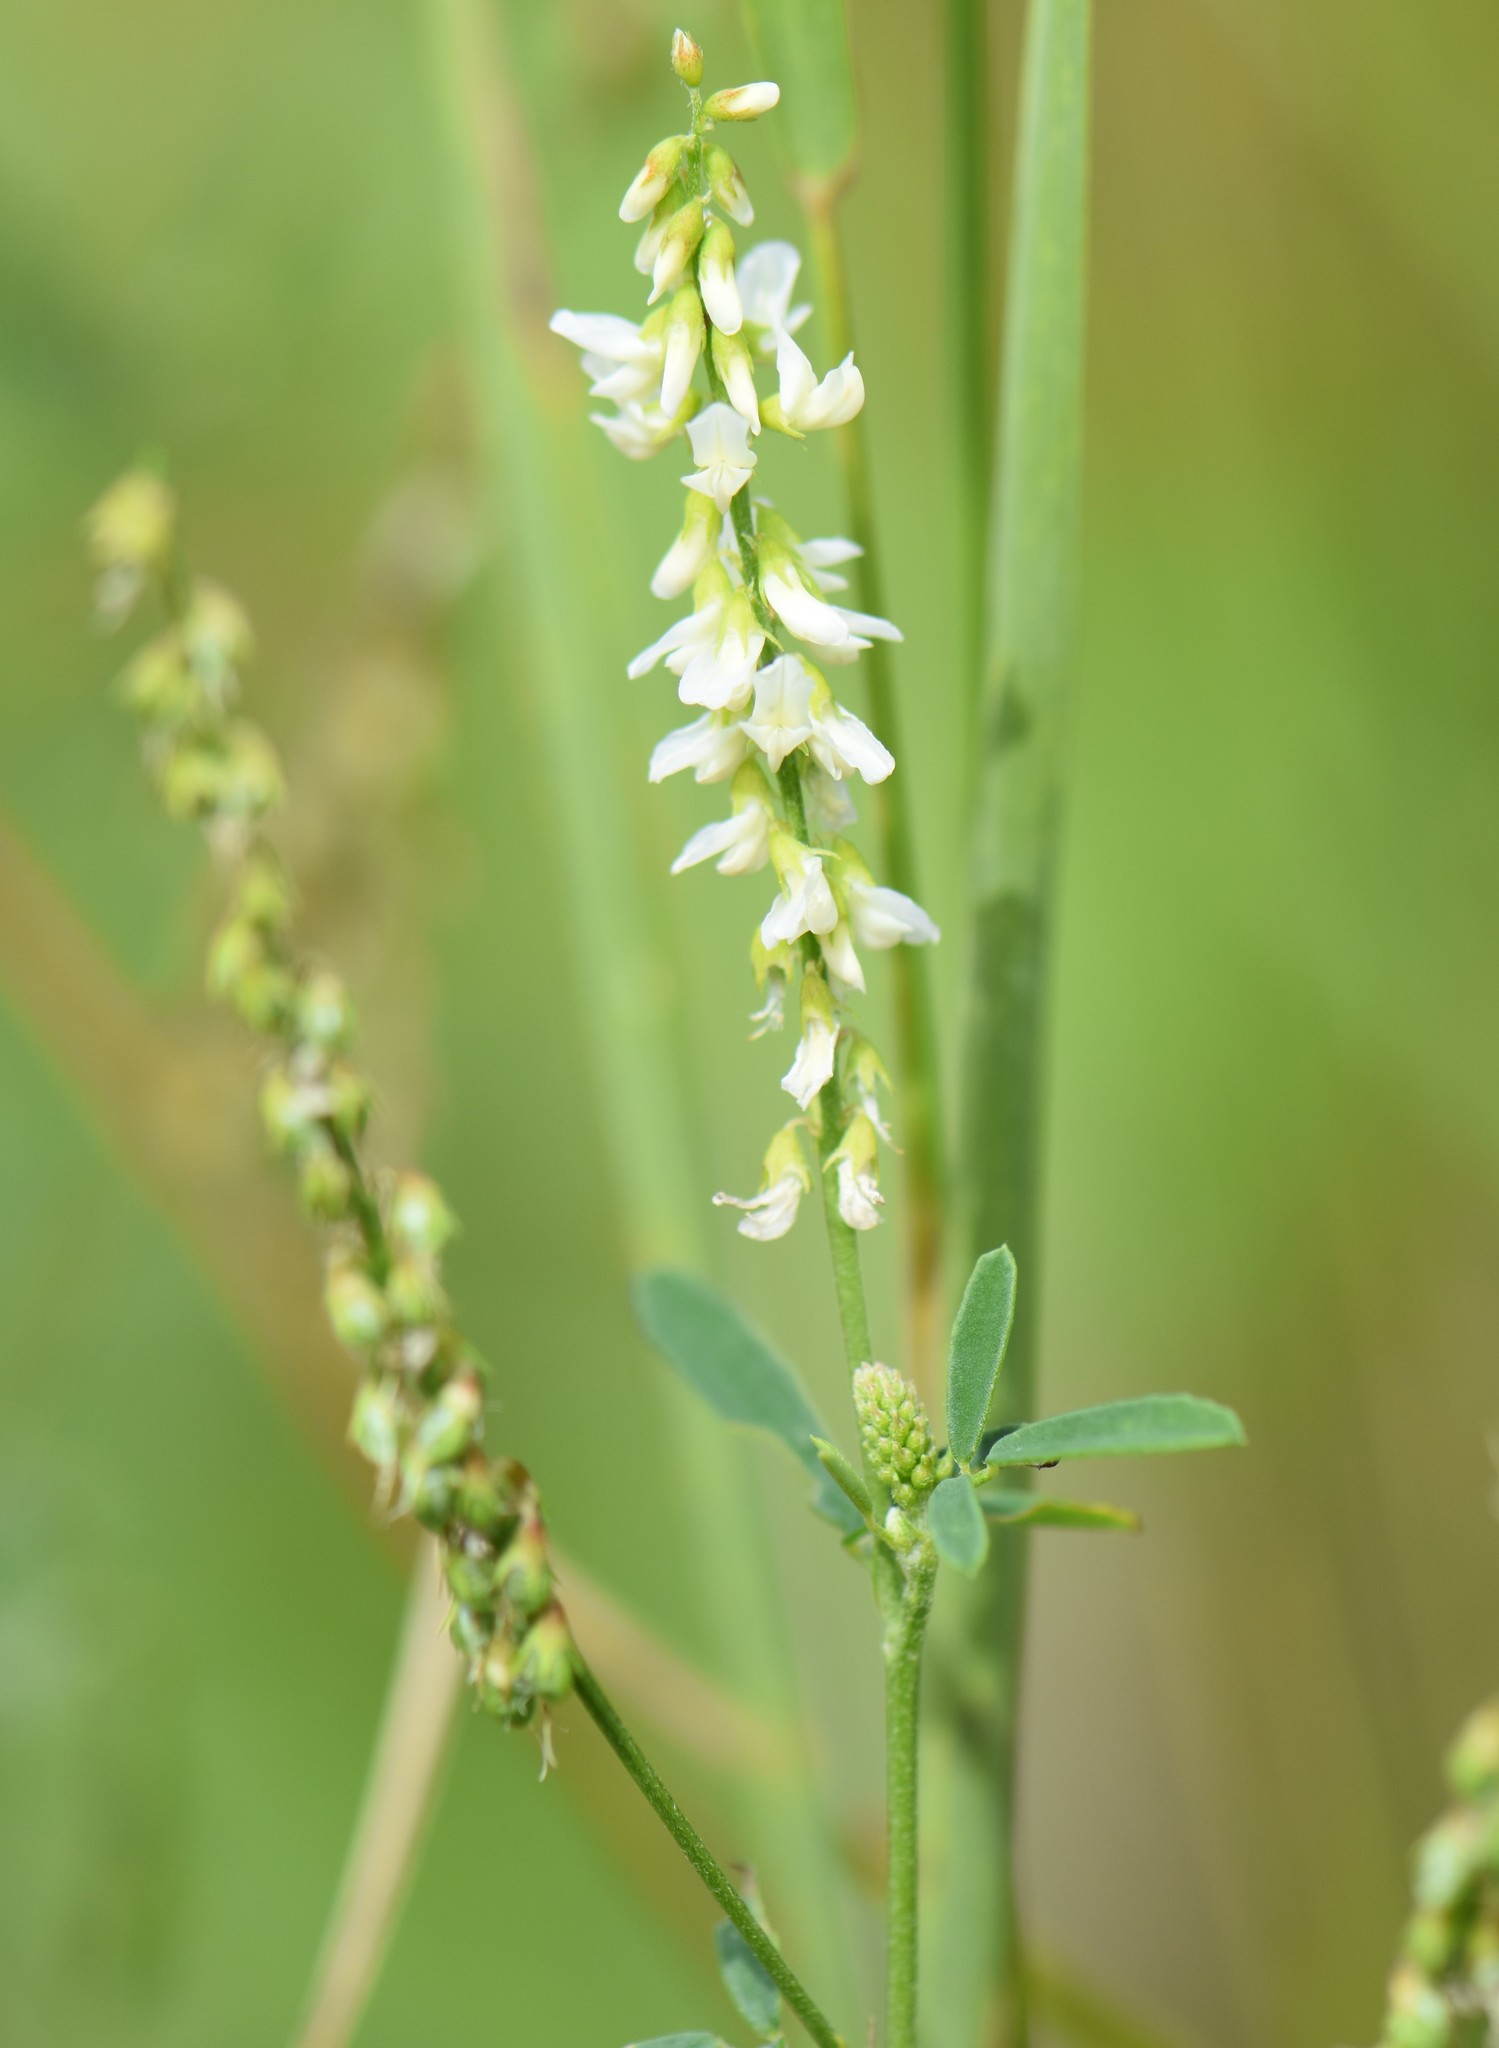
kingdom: Plantae
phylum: Tracheophyta
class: Magnoliopsida
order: Fabales
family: Fabaceae
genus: Melilotus
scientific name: Melilotus albus
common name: White melilot
